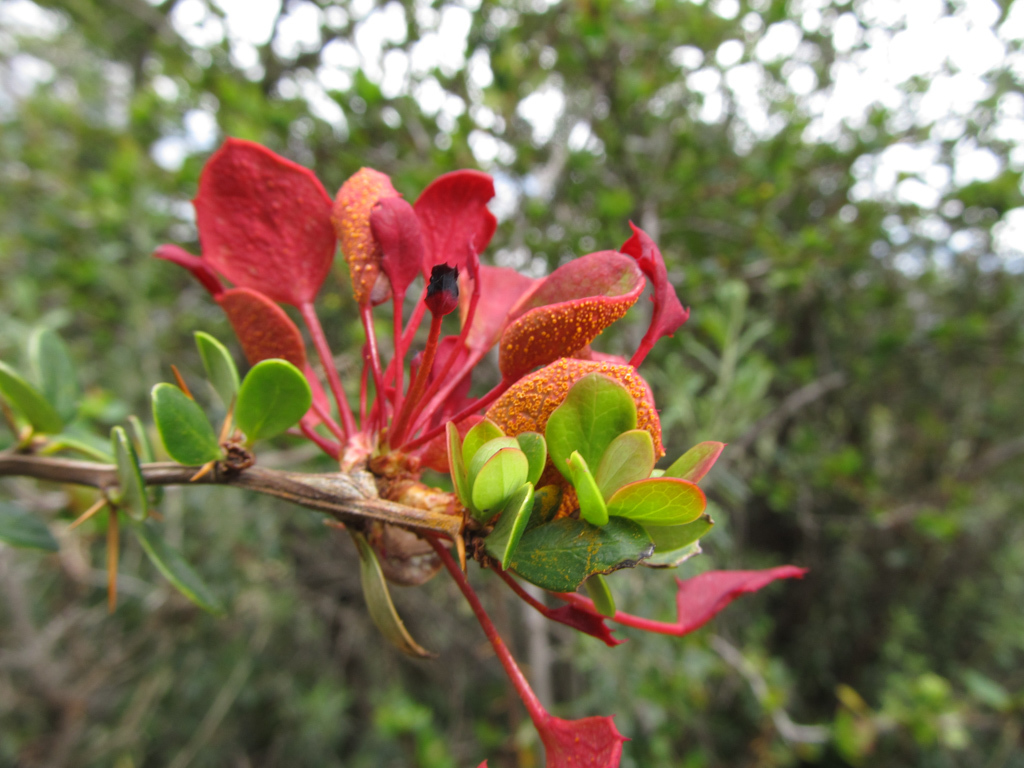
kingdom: Fungi
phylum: Basidiomycota
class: Pucciniomycetes
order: Pucciniales
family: Pucciniaceae
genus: Puccinia
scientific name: Puccinia magellanica
